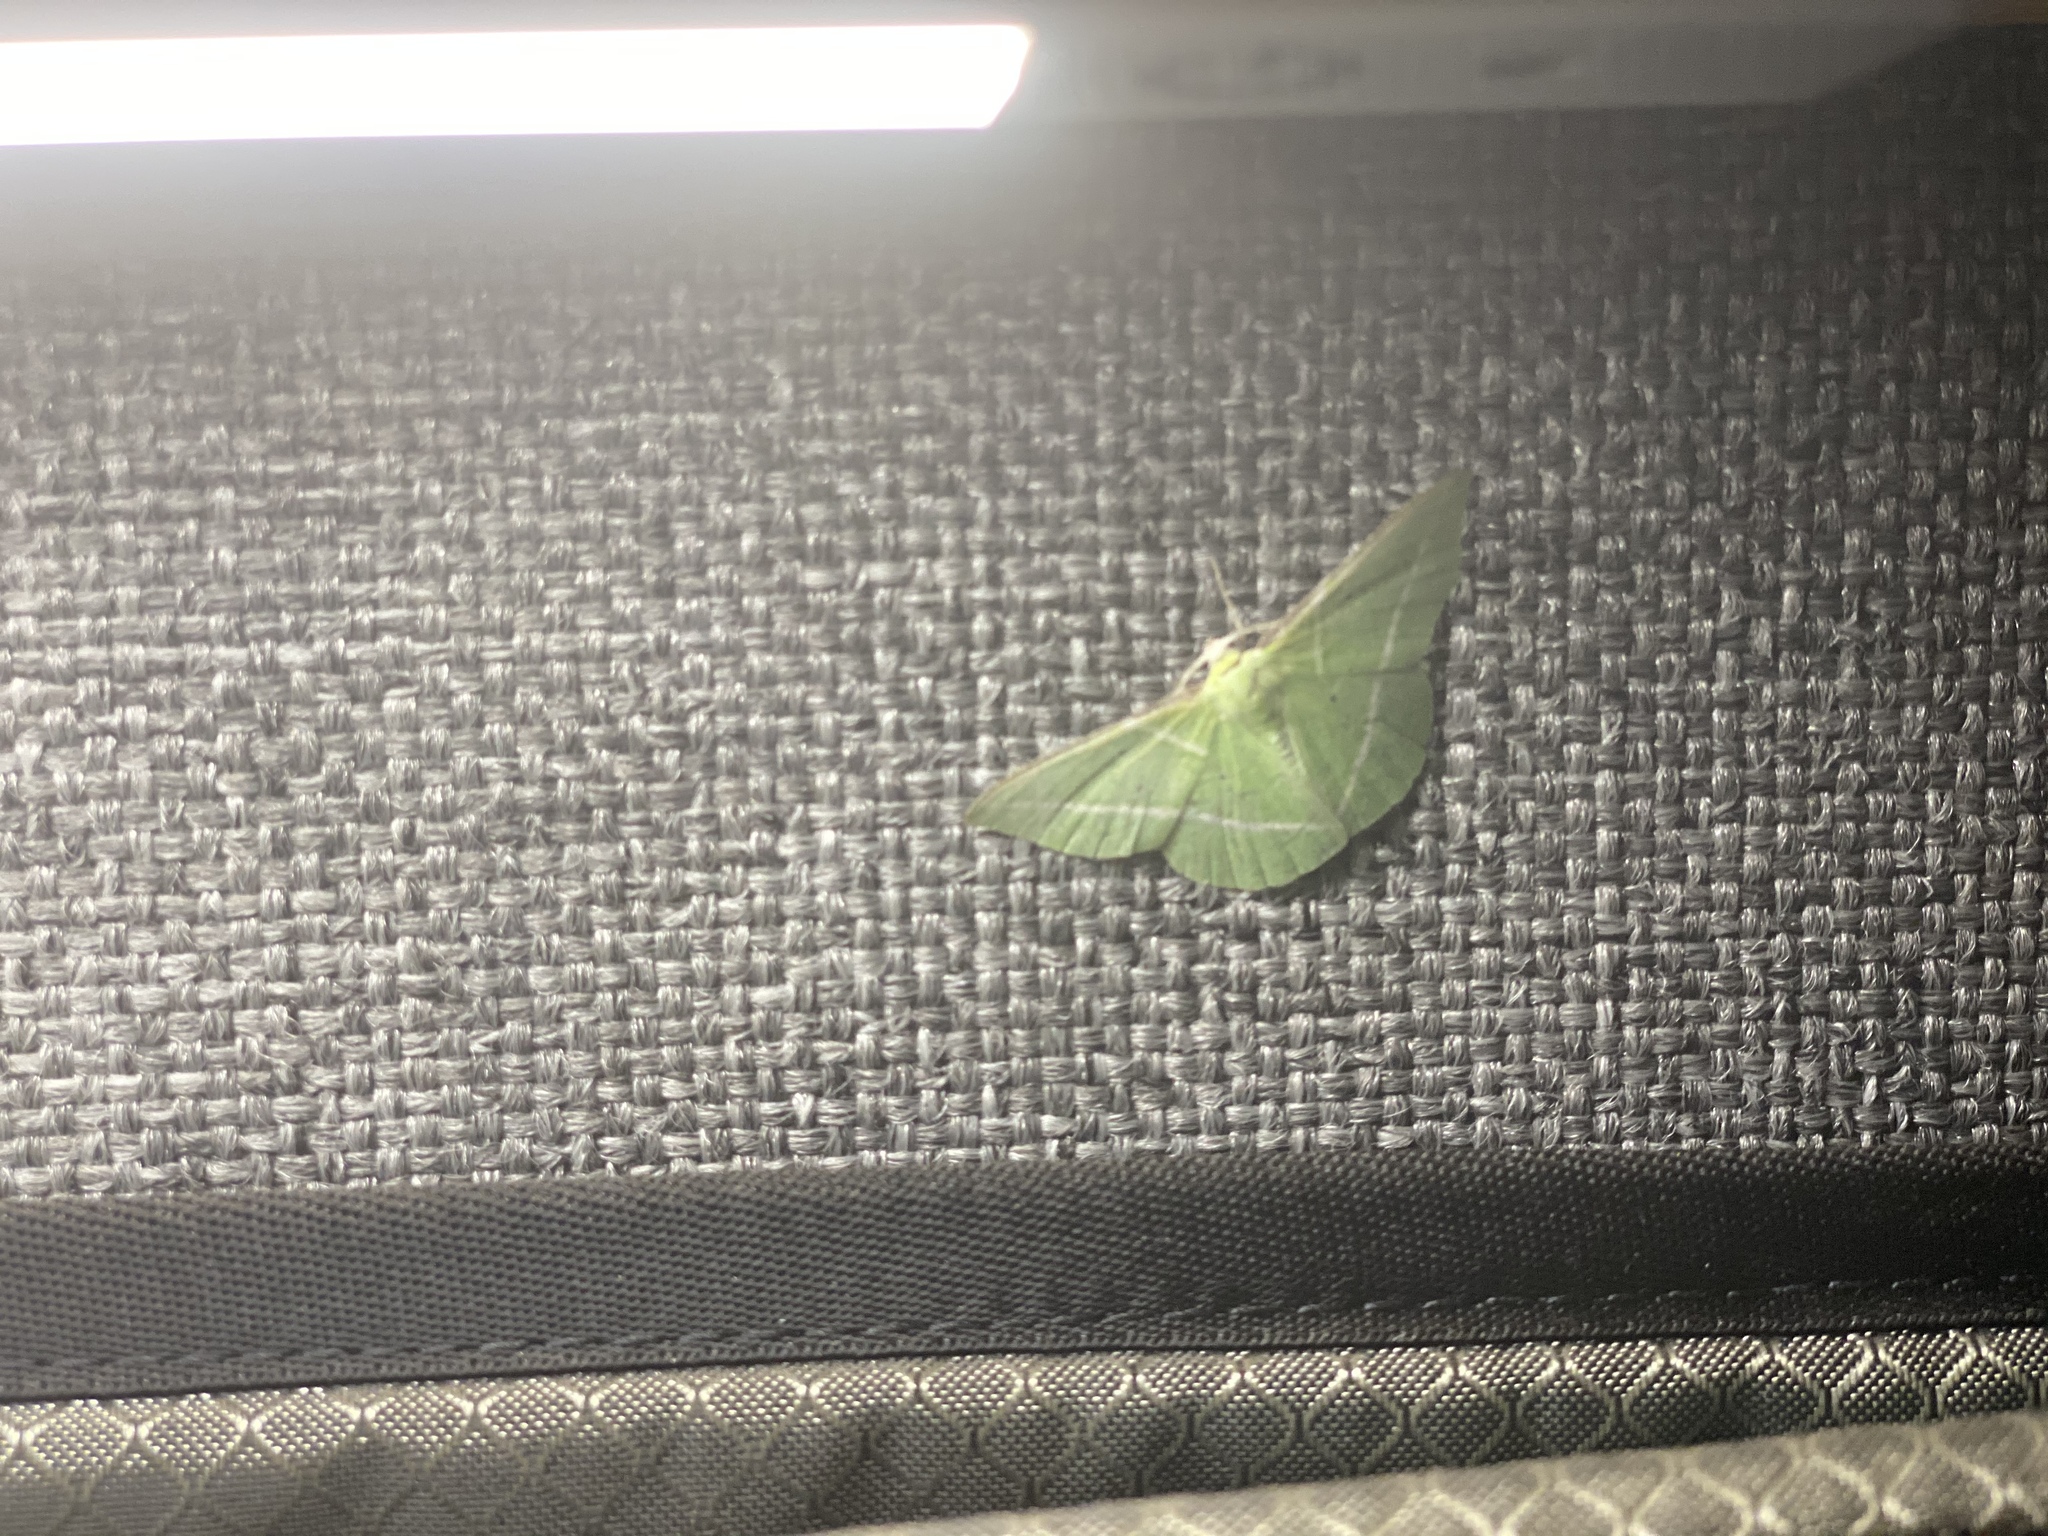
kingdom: Animalia
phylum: Arthropoda
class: Insecta
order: Lepidoptera
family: Geometridae
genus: Dichorda
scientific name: Dichorda illustraria
